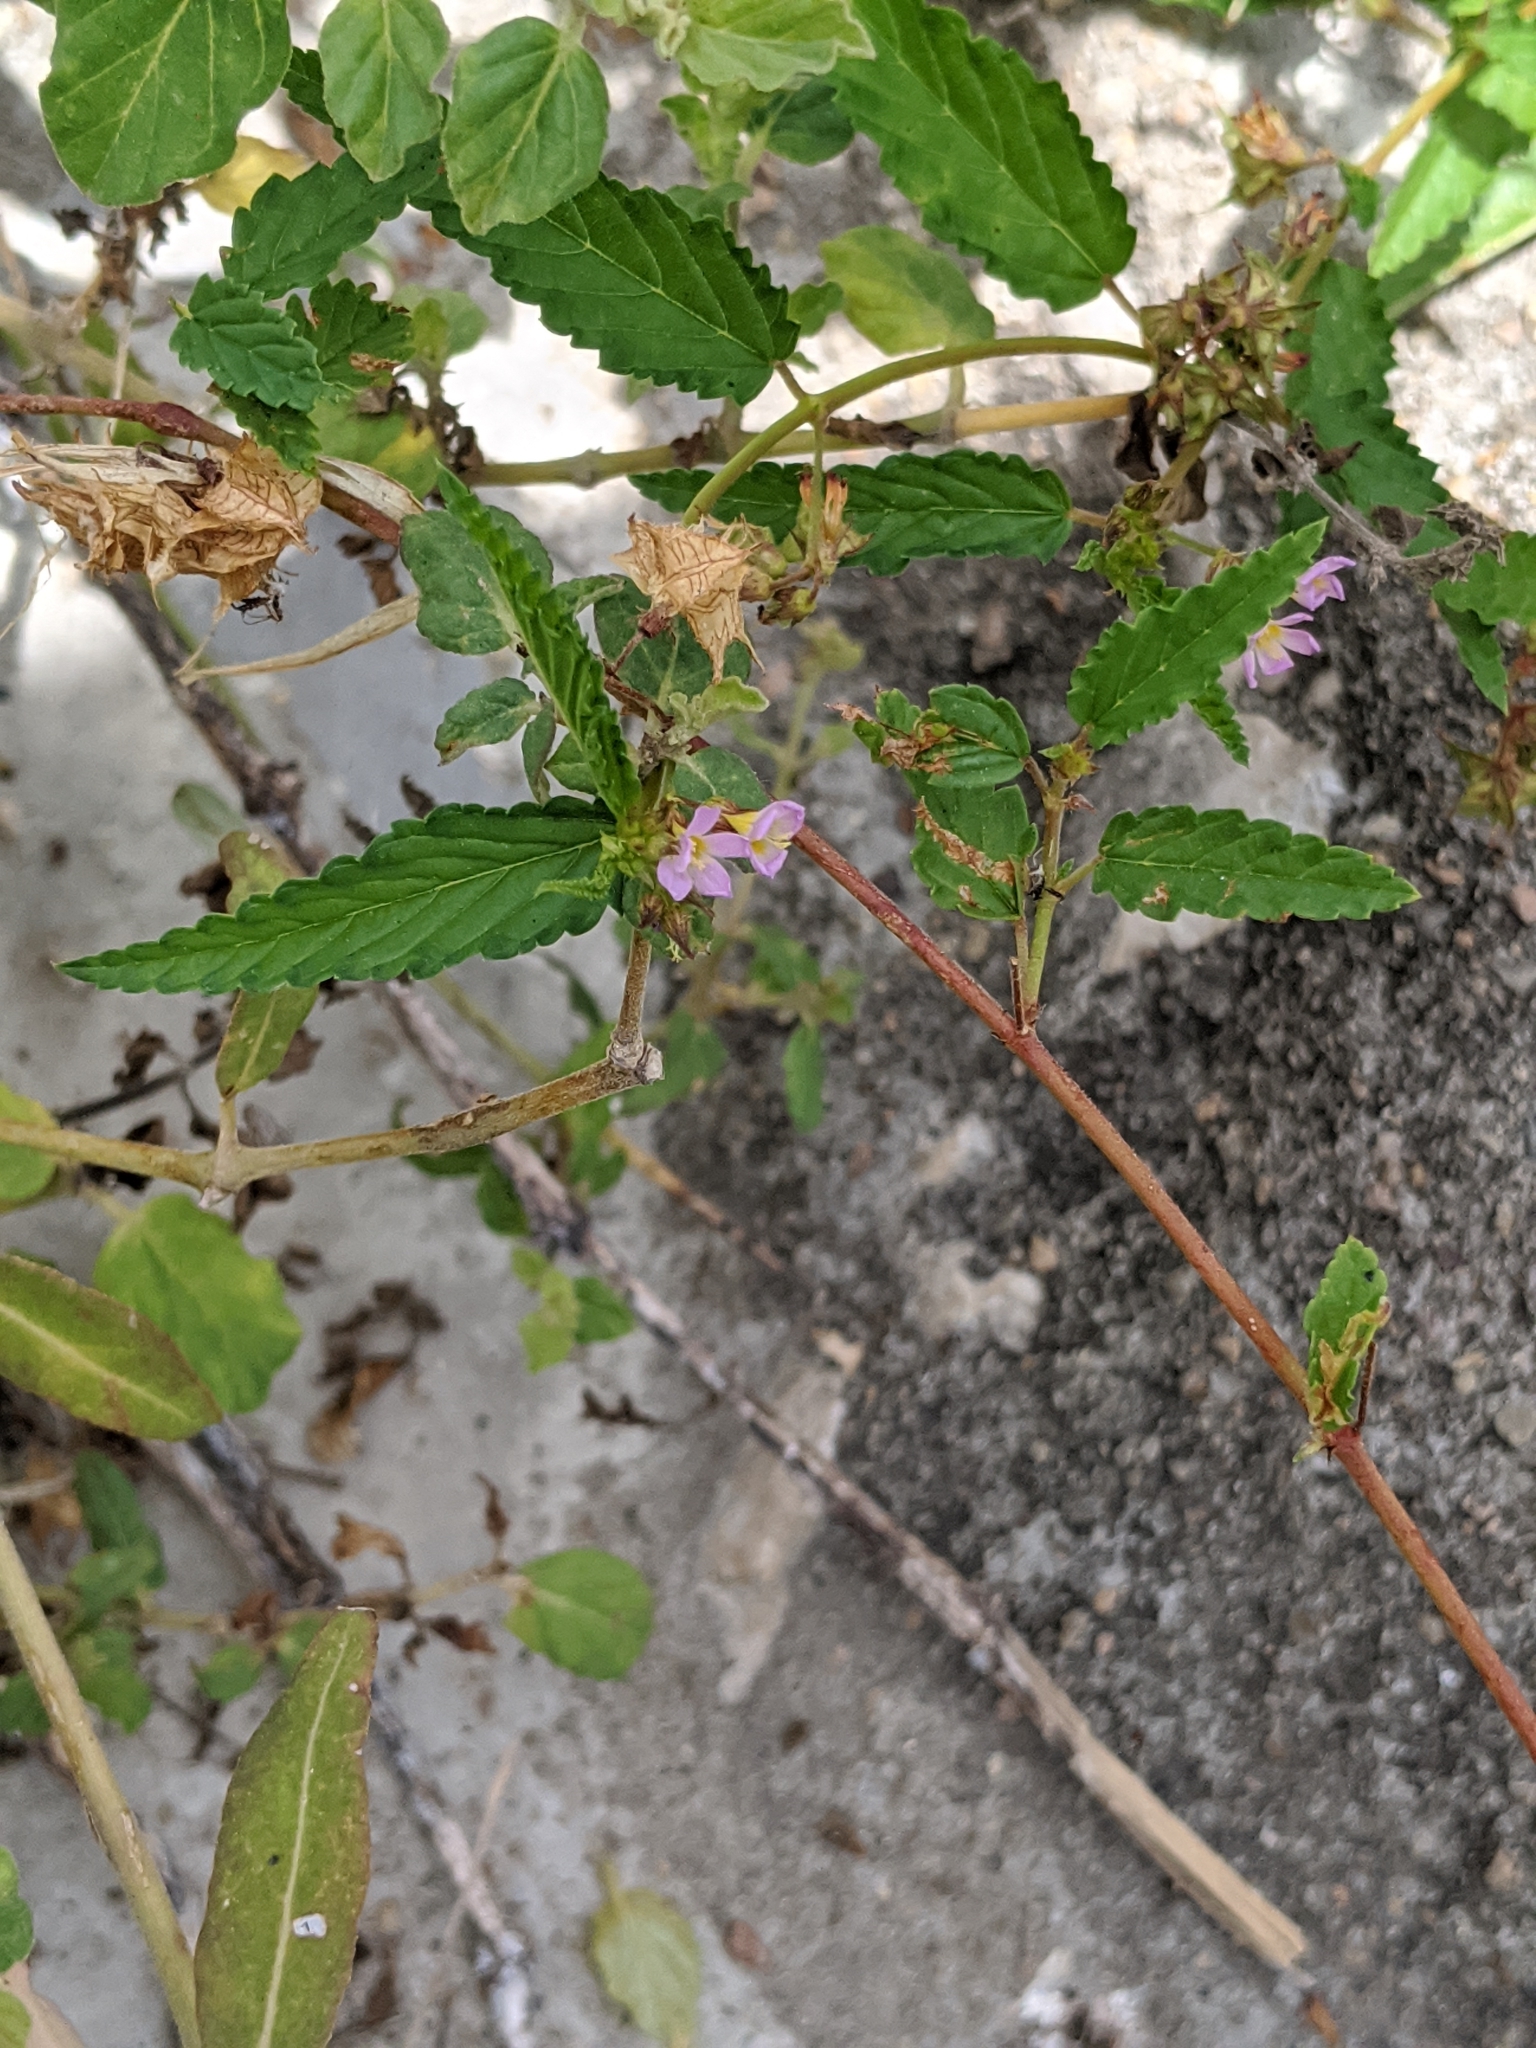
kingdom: Plantae
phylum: Tracheophyta
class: Magnoliopsida
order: Malvales
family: Malvaceae
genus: Melochia
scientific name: Melochia pyramidata
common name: Pyramidflower
